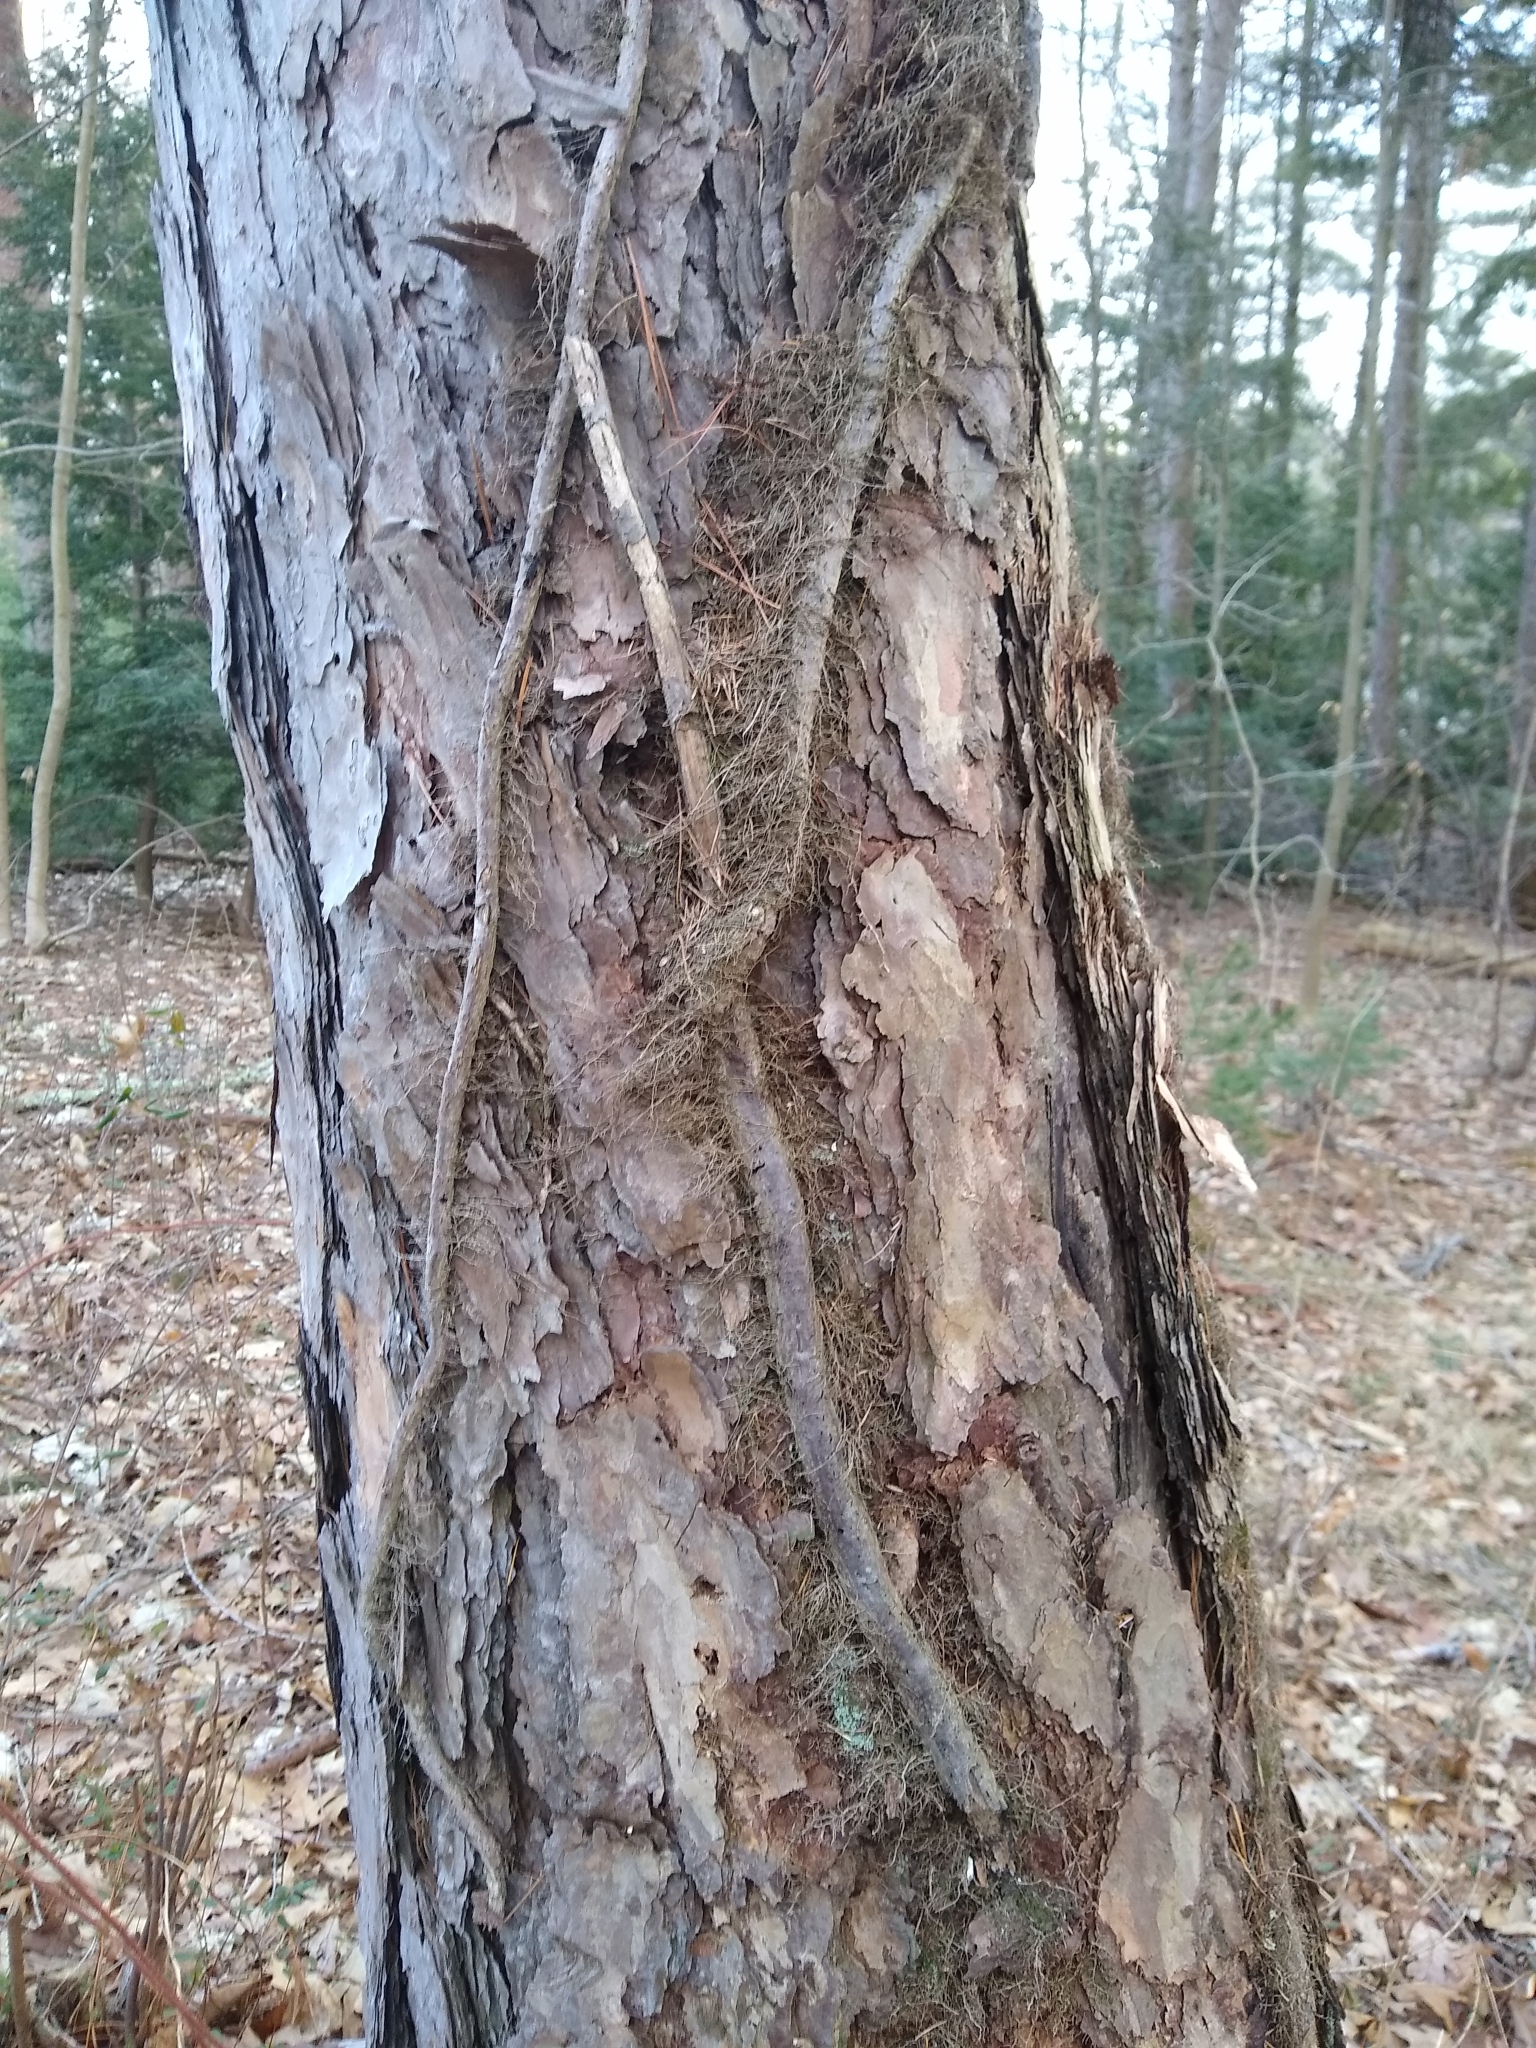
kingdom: Plantae
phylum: Tracheophyta
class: Magnoliopsida
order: Sapindales
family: Anacardiaceae
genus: Toxicodendron
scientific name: Toxicodendron radicans
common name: Poison ivy
